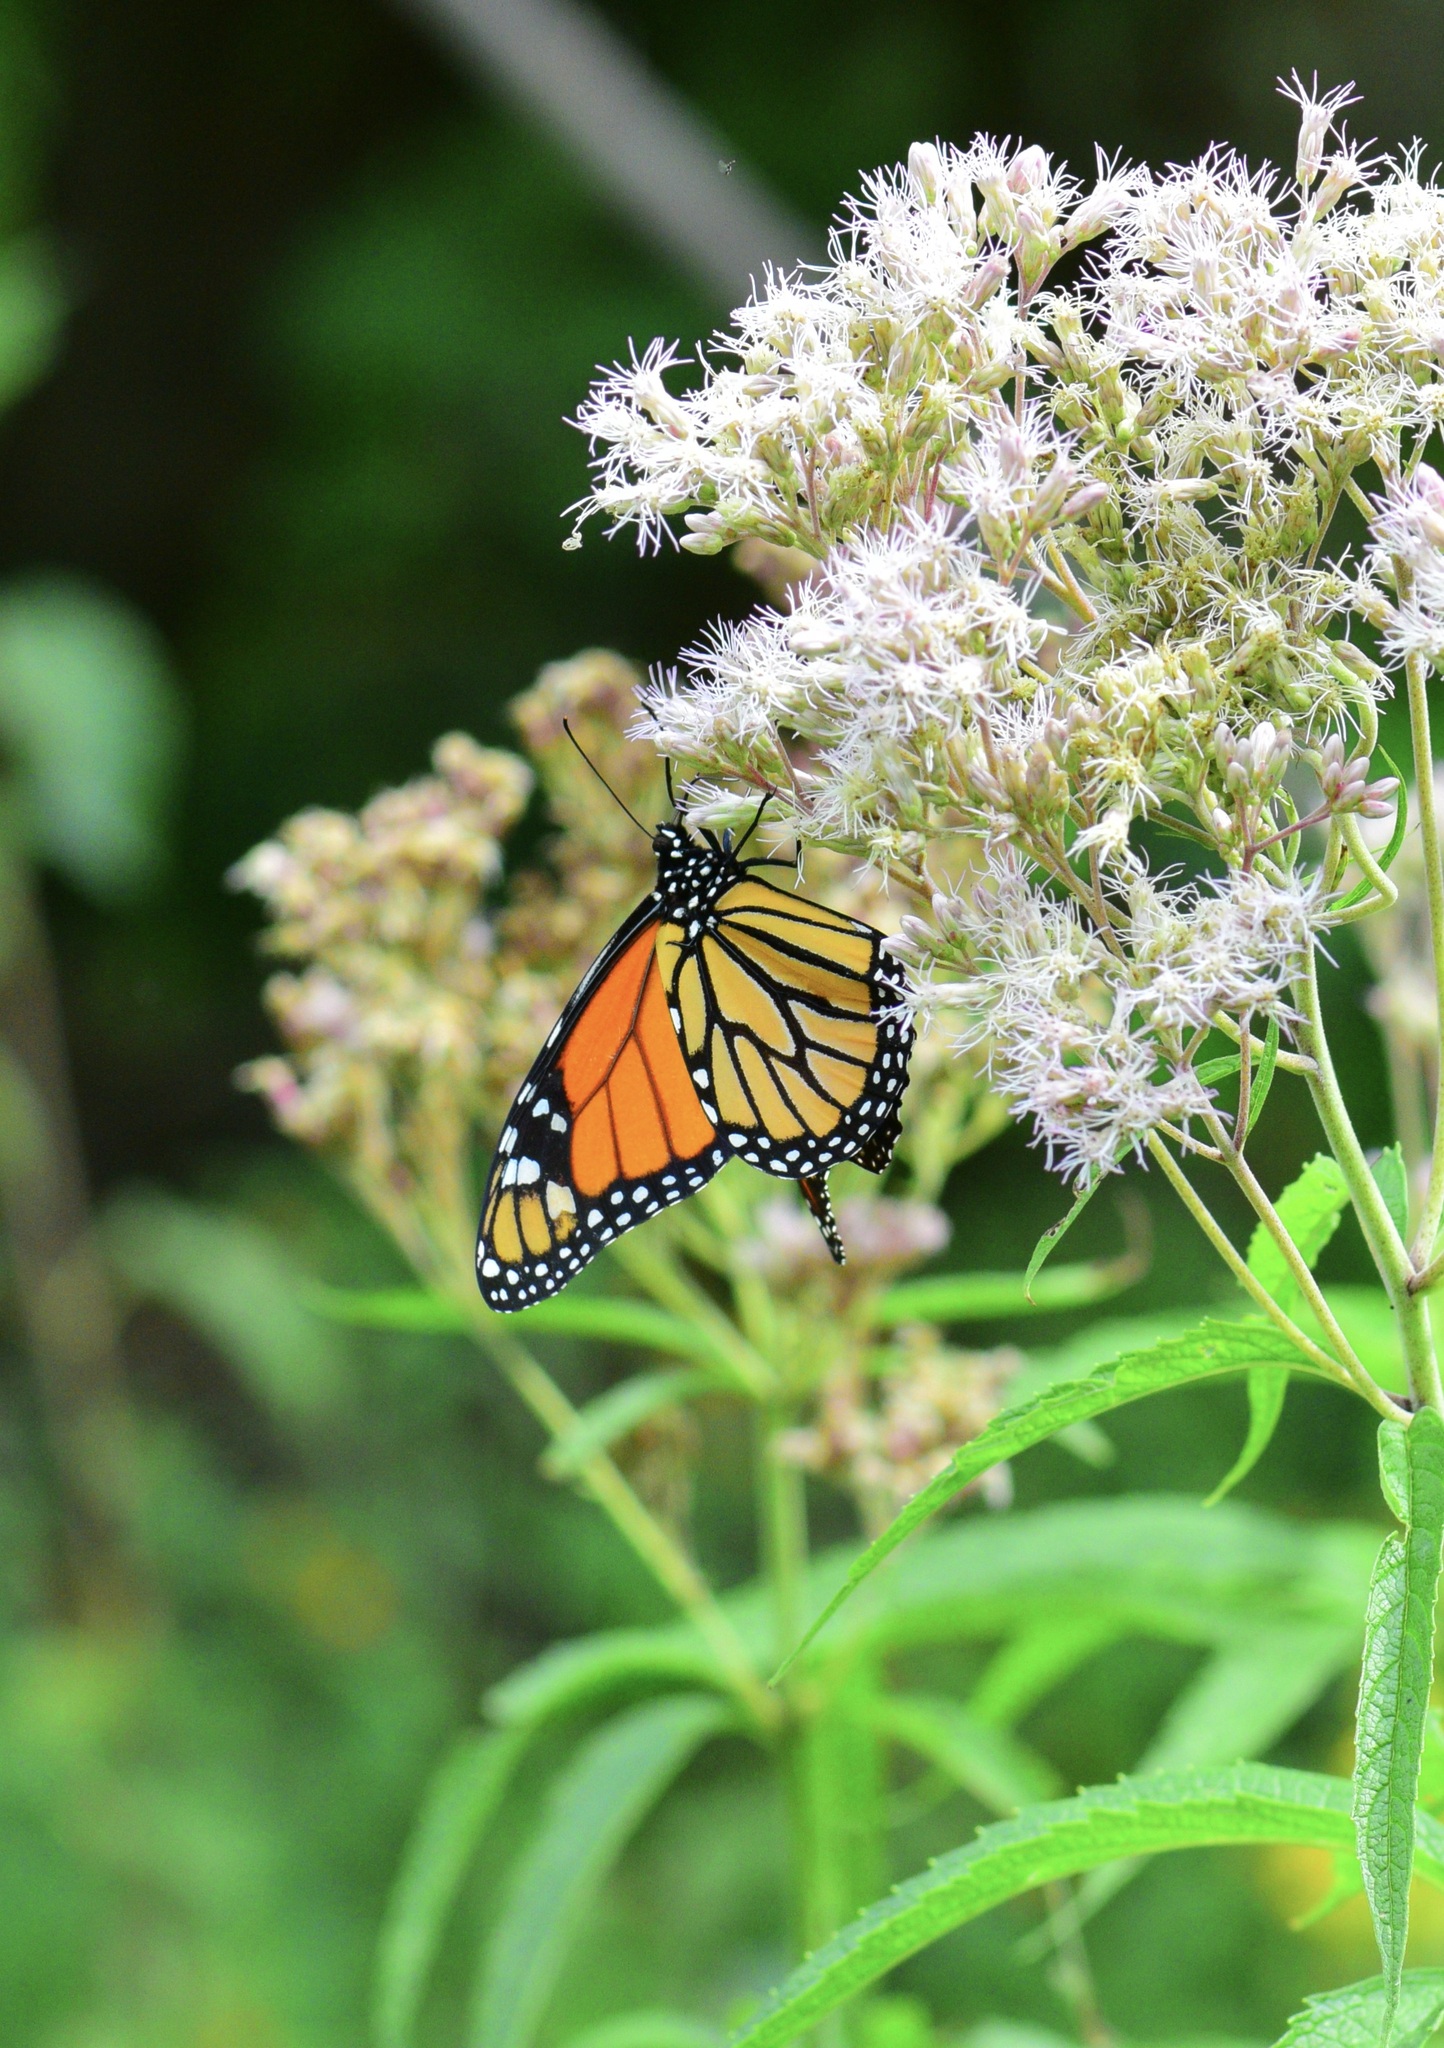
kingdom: Animalia
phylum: Arthropoda
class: Insecta
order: Lepidoptera
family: Nymphalidae
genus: Danaus
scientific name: Danaus plexippus
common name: Monarch
